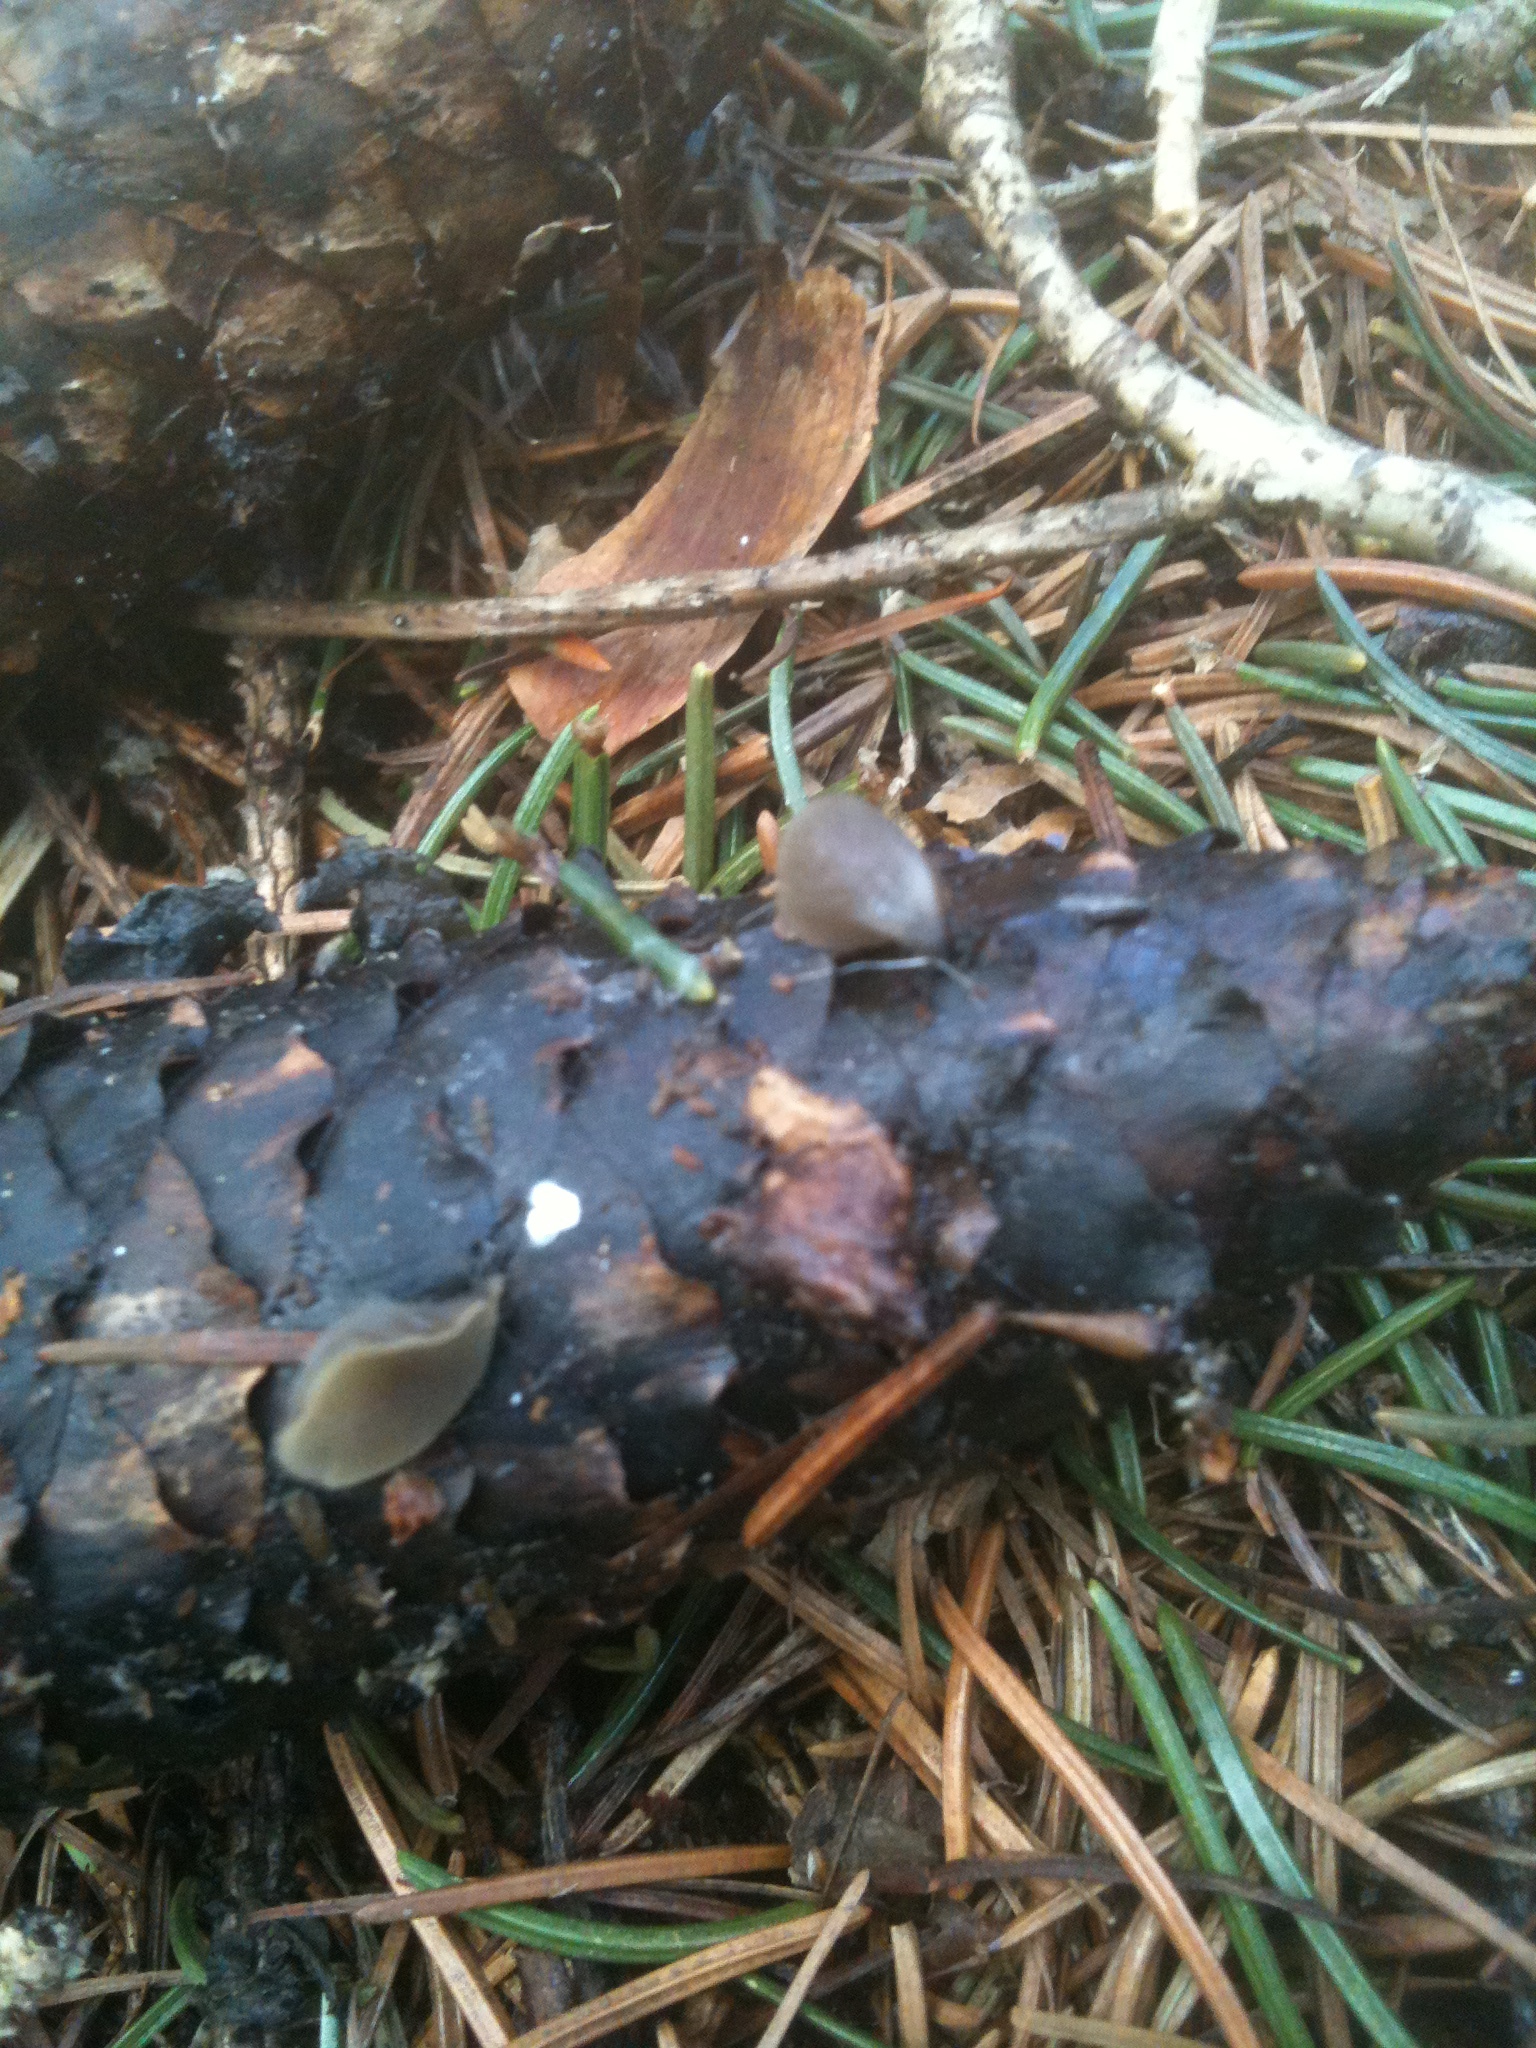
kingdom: Fungi
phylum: Ascomycota
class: Leotiomycetes
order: Helotiales
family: Rutstroemiaceae
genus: Rutstroemia
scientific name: Rutstroemia bulgarioides
